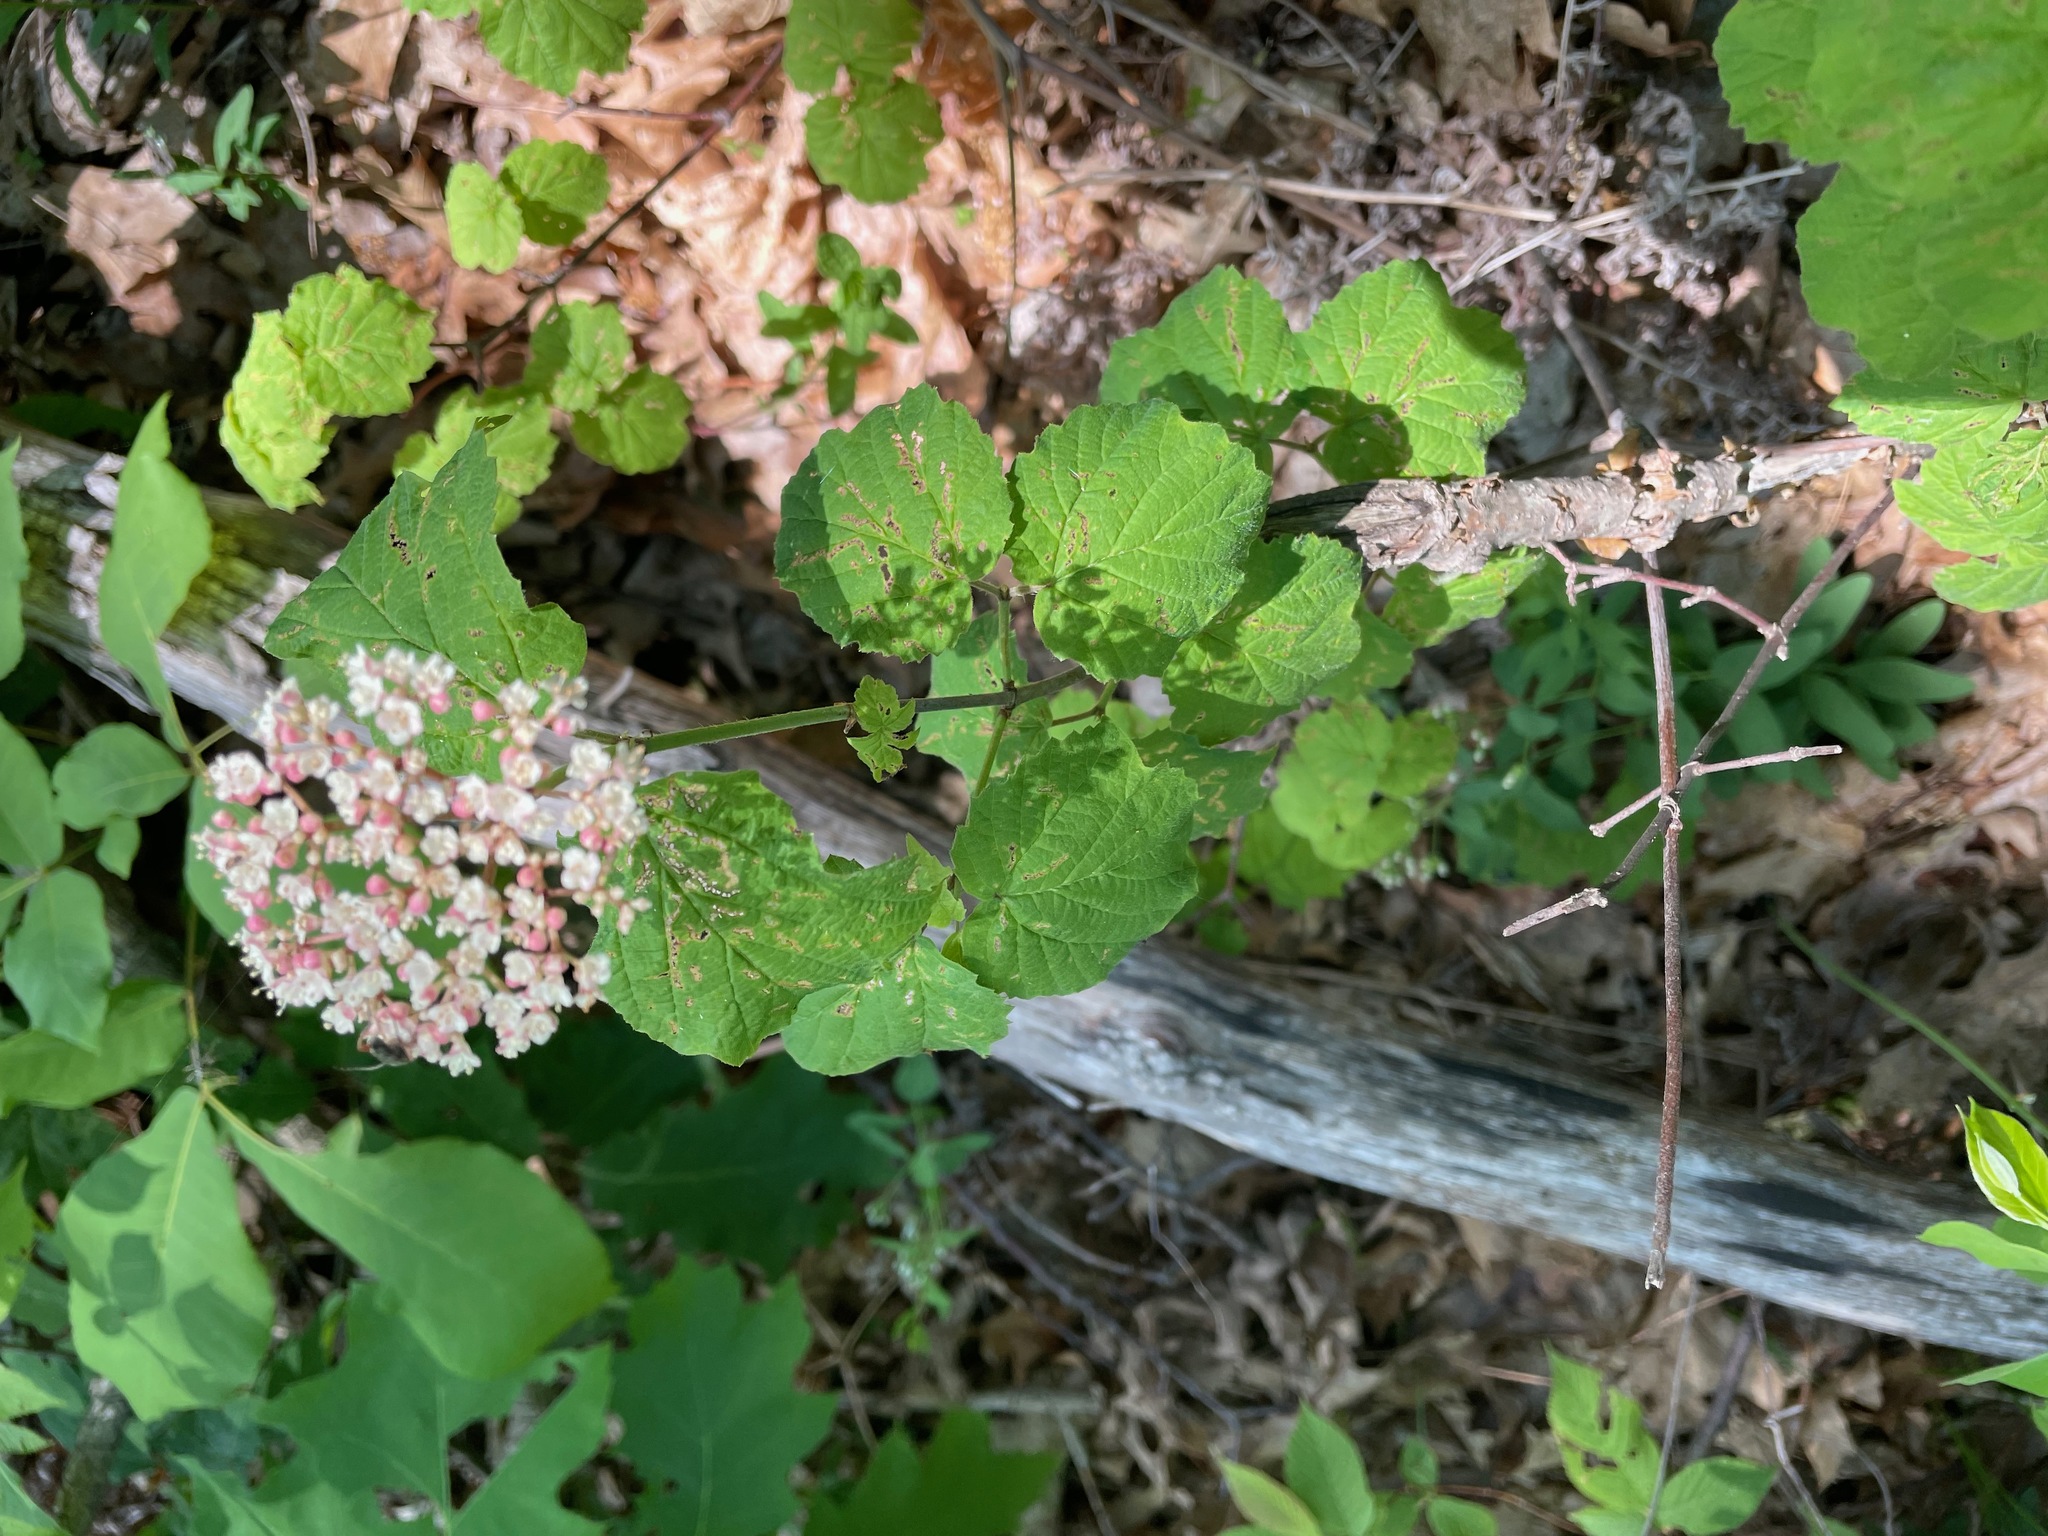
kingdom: Plantae
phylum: Tracheophyta
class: Magnoliopsida
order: Dipsacales
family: Viburnaceae
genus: Viburnum
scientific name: Viburnum acerifolium
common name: Dockmackie
